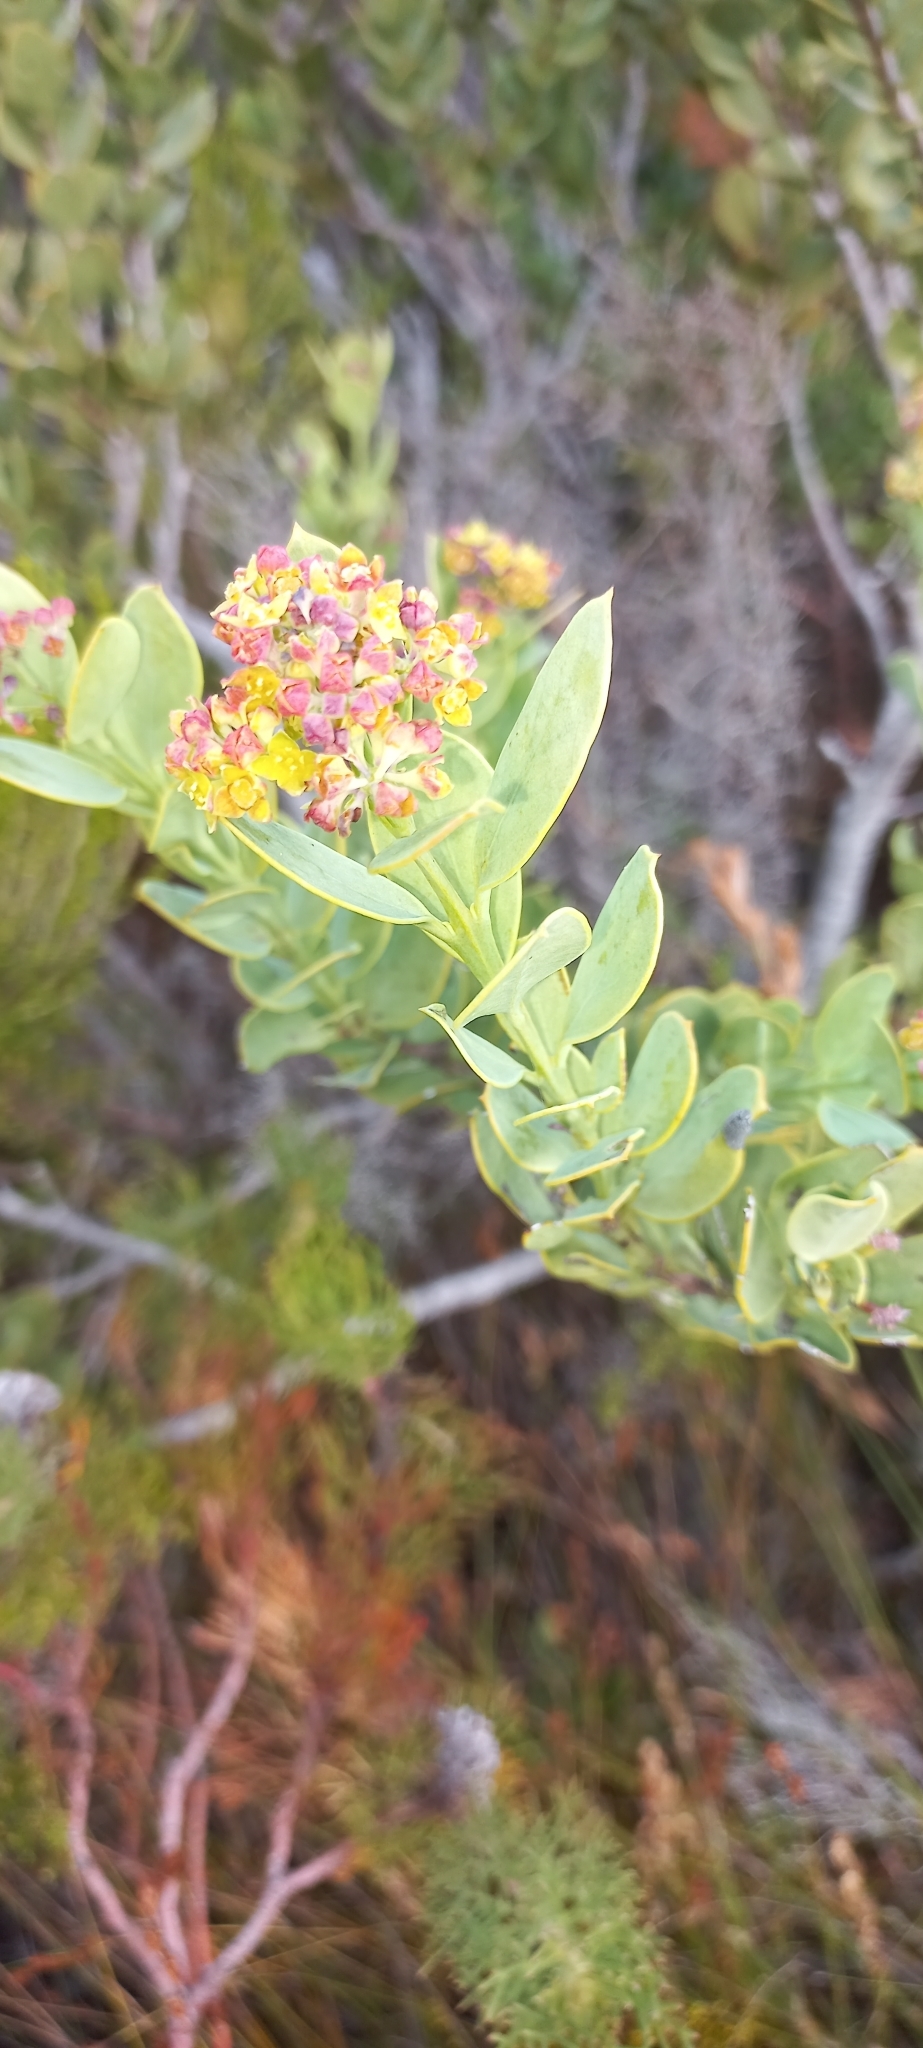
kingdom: Plantae
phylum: Tracheophyta
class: Magnoliopsida
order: Santalales
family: Santalaceae
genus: Osyris
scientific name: Osyris compressa
